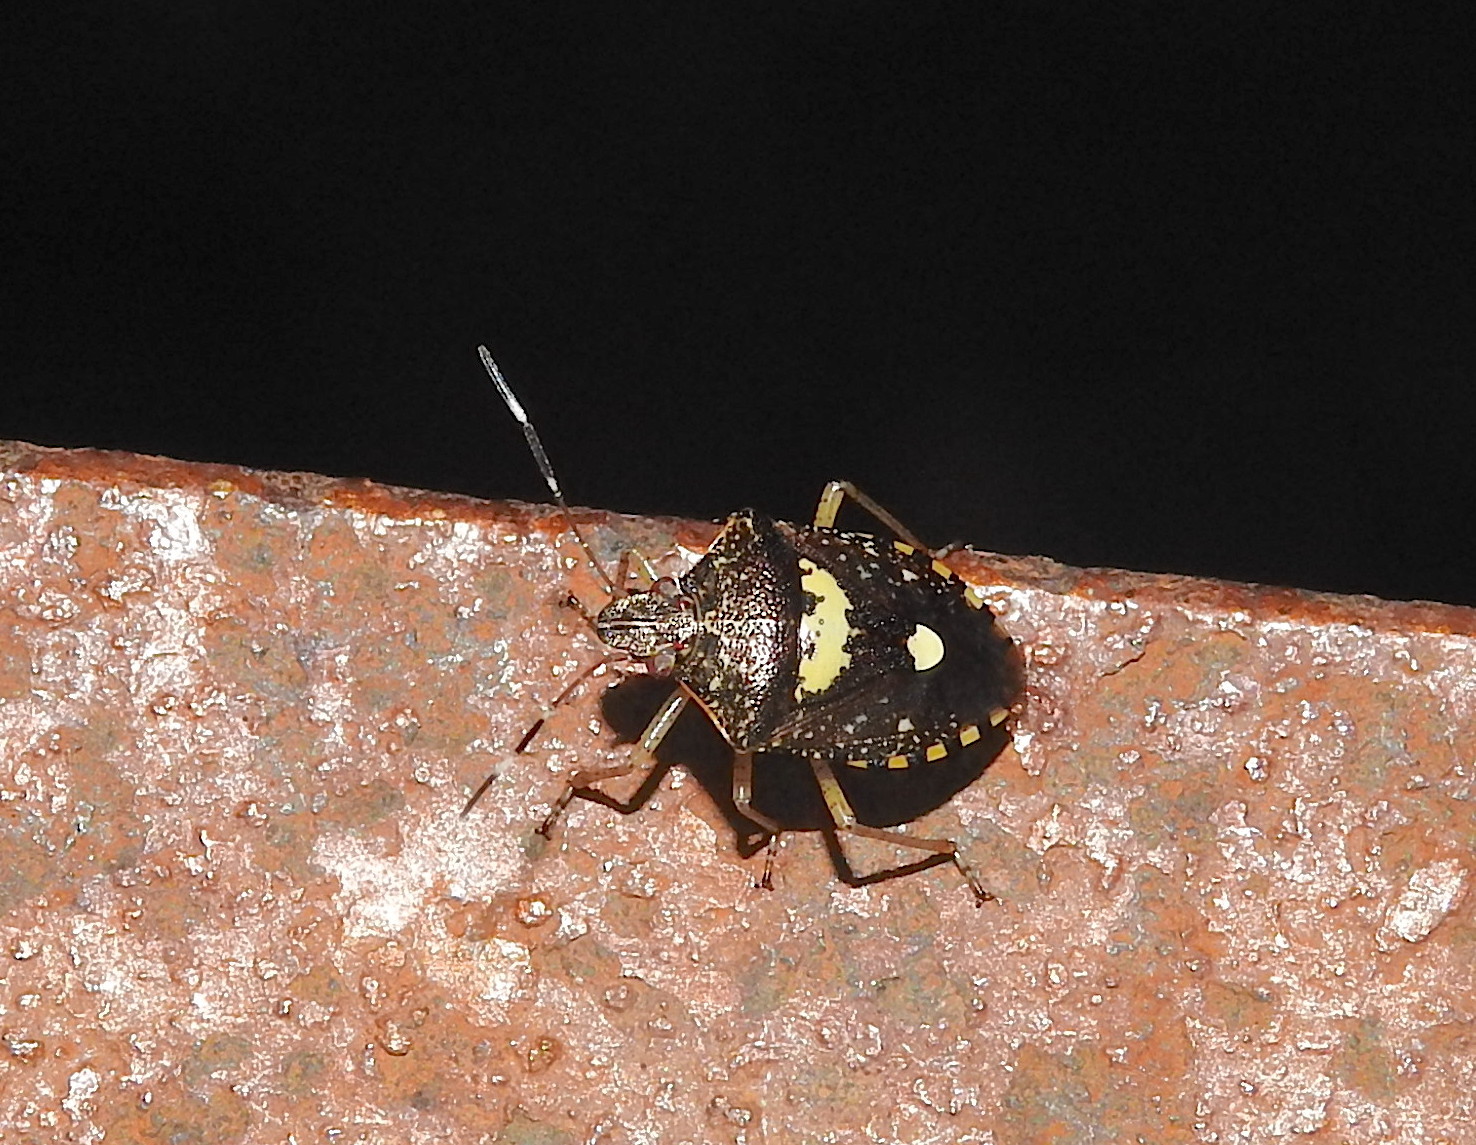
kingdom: Animalia
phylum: Arthropoda
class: Insecta
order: Hemiptera
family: Pentatomidae
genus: Tolumnia
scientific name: Tolumnia basalis
